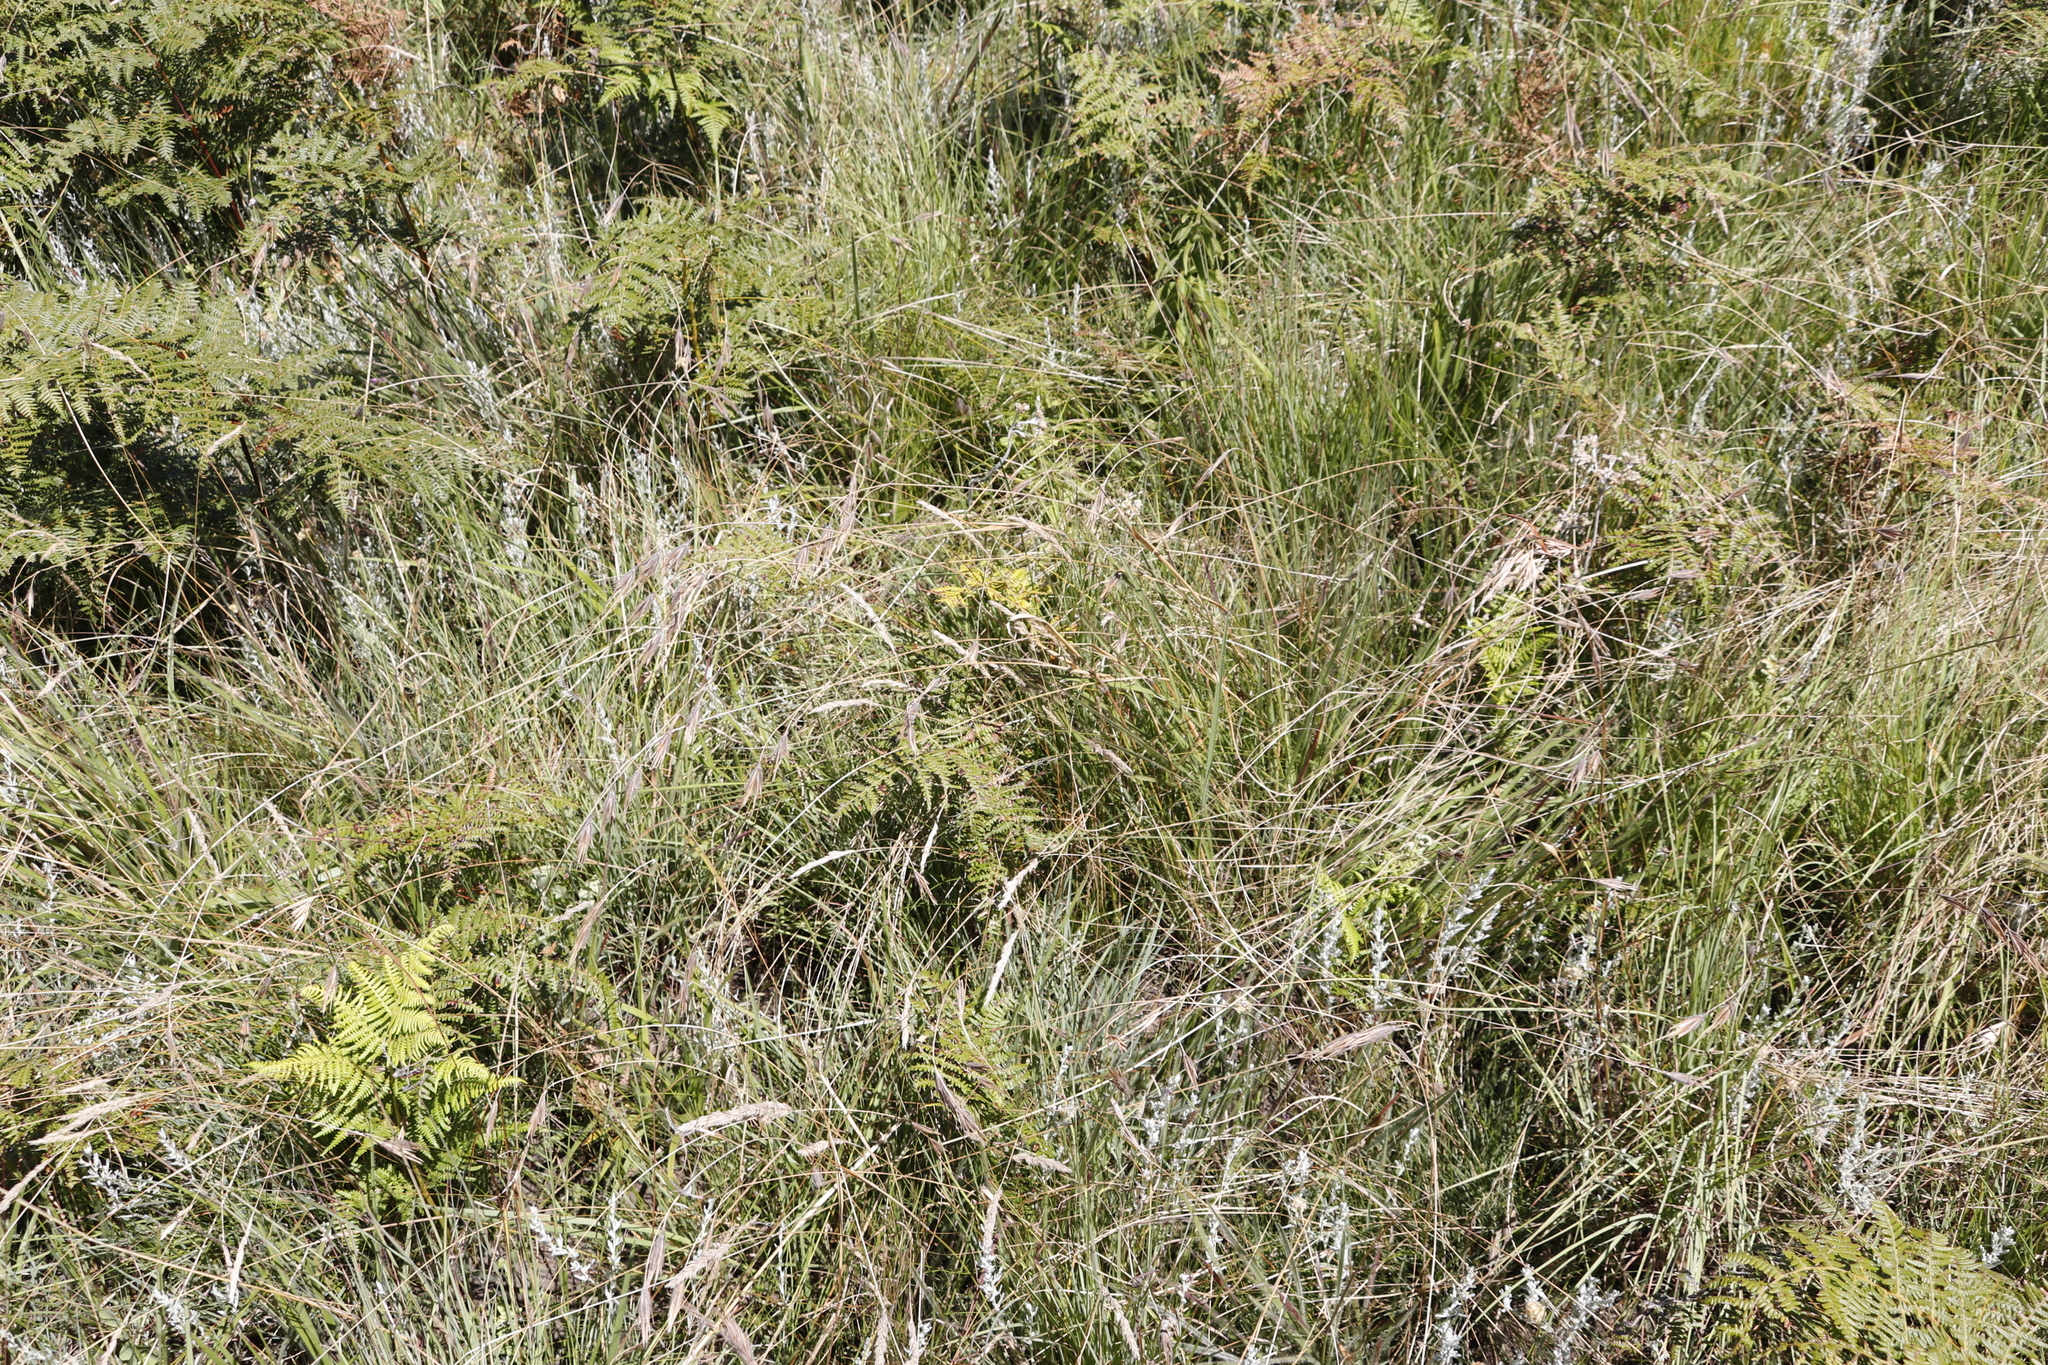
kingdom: Plantae
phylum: Tracheophyta
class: Liliopsida
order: Poales
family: Poaceae
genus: Tristachya
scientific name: Tristachya leucothrix
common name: Trident grass
